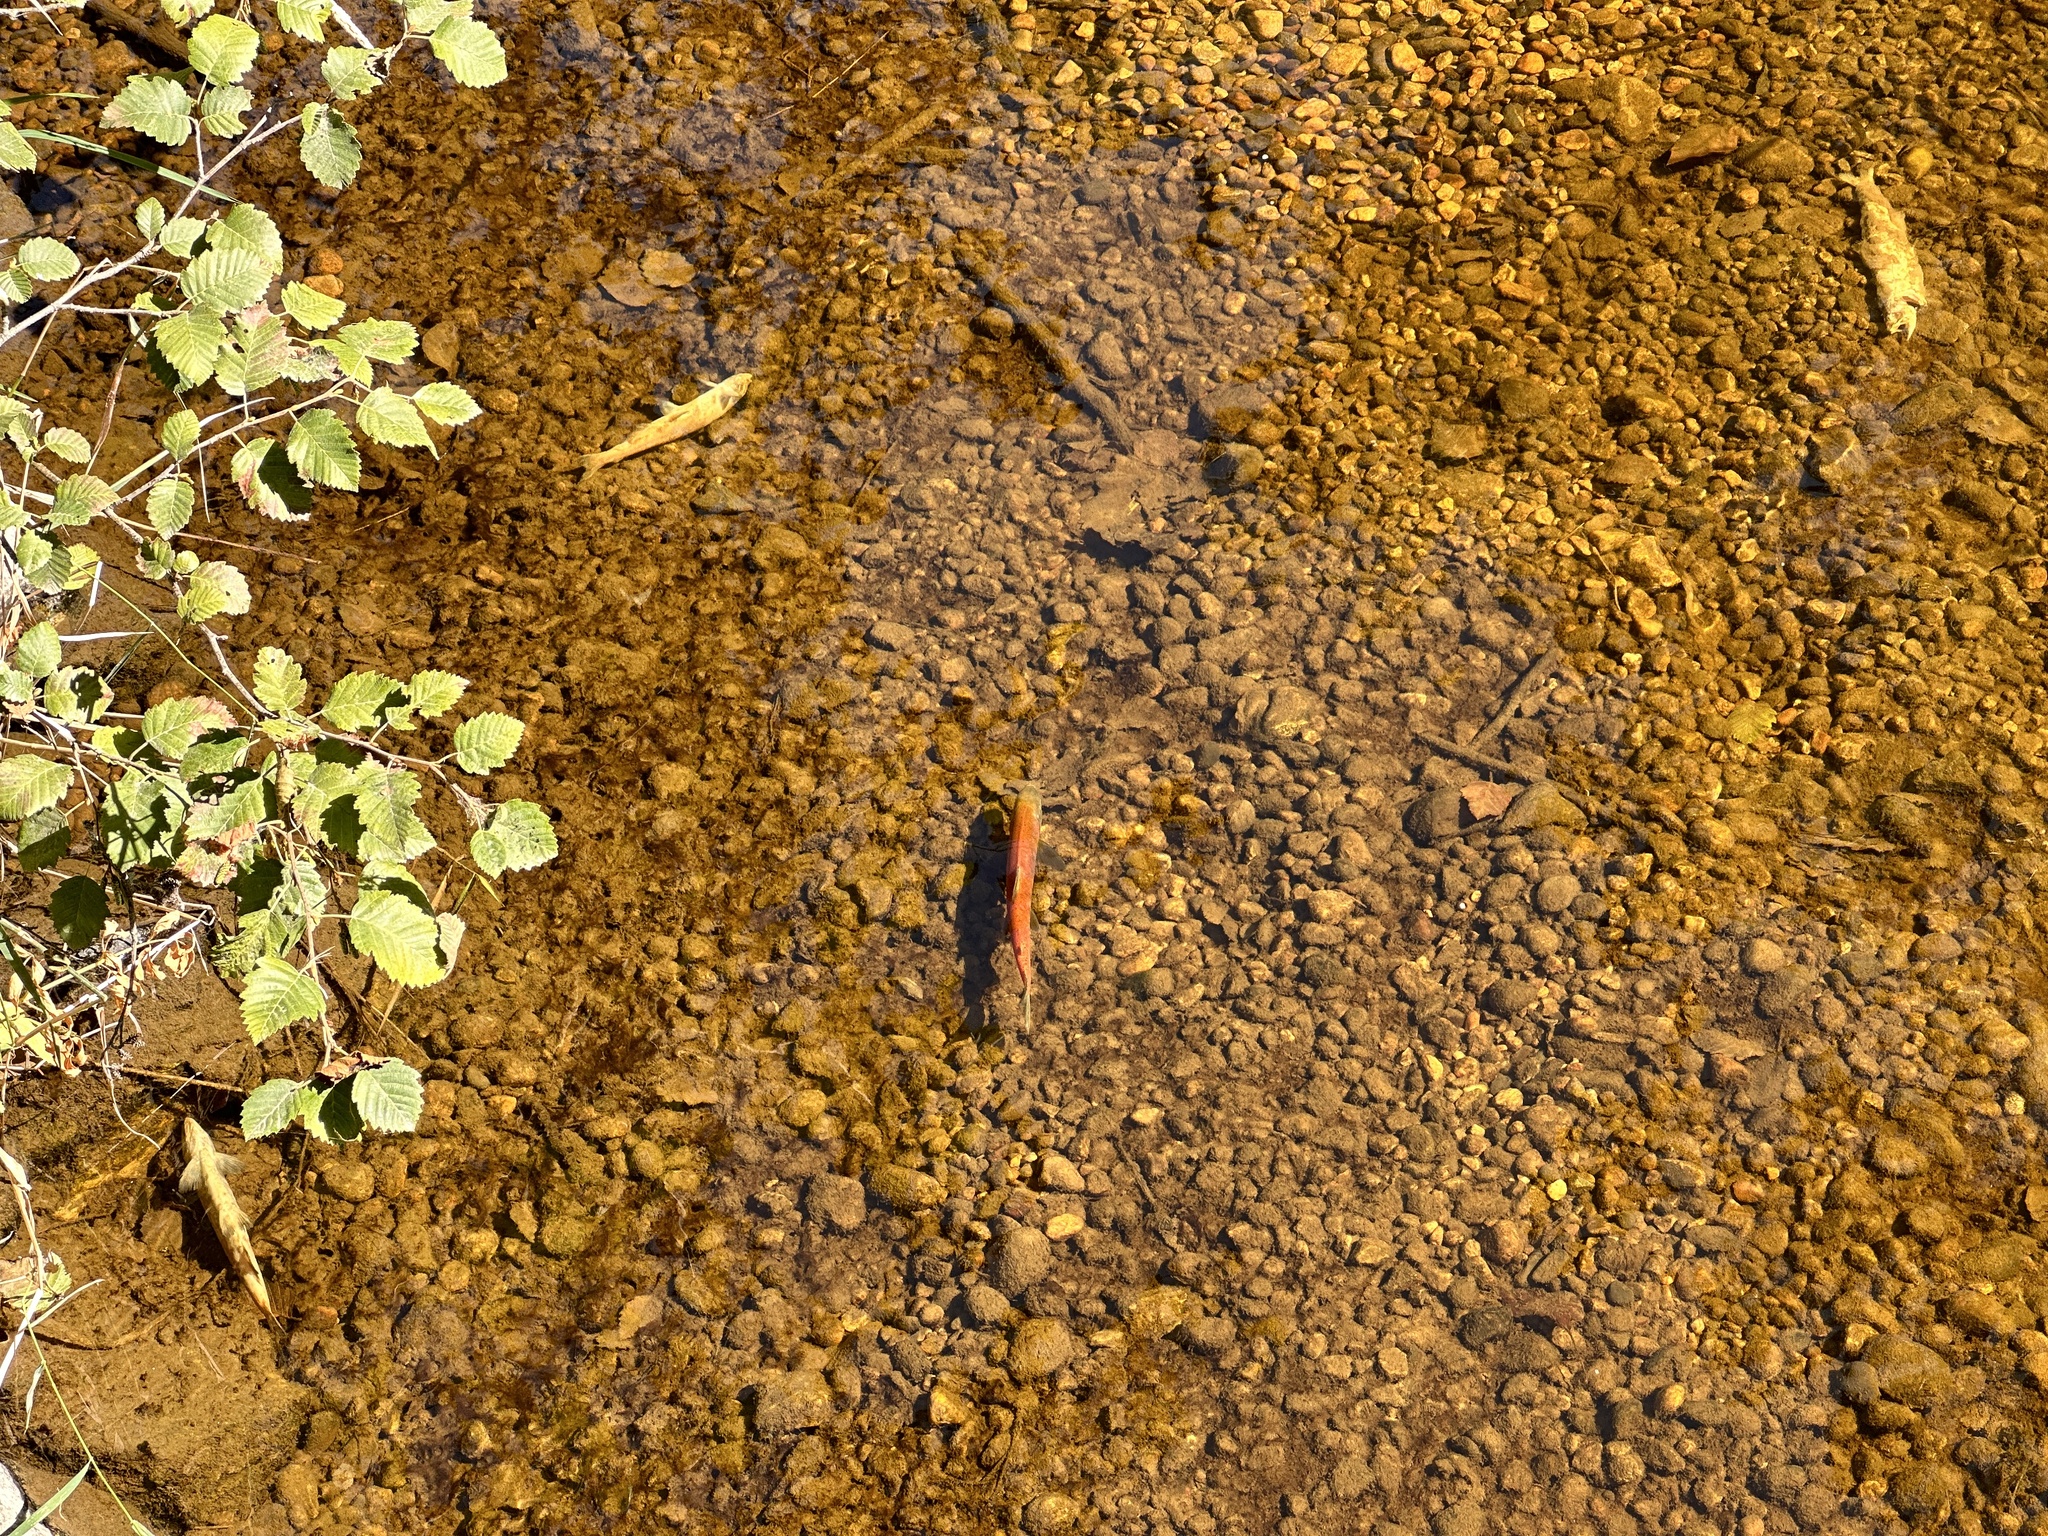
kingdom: Animalia
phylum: Chordata
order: Salmoniformes
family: Salmonidae
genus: Oncorhynchus
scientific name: Oncorhynchus nerka
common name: Sockeye salmon
